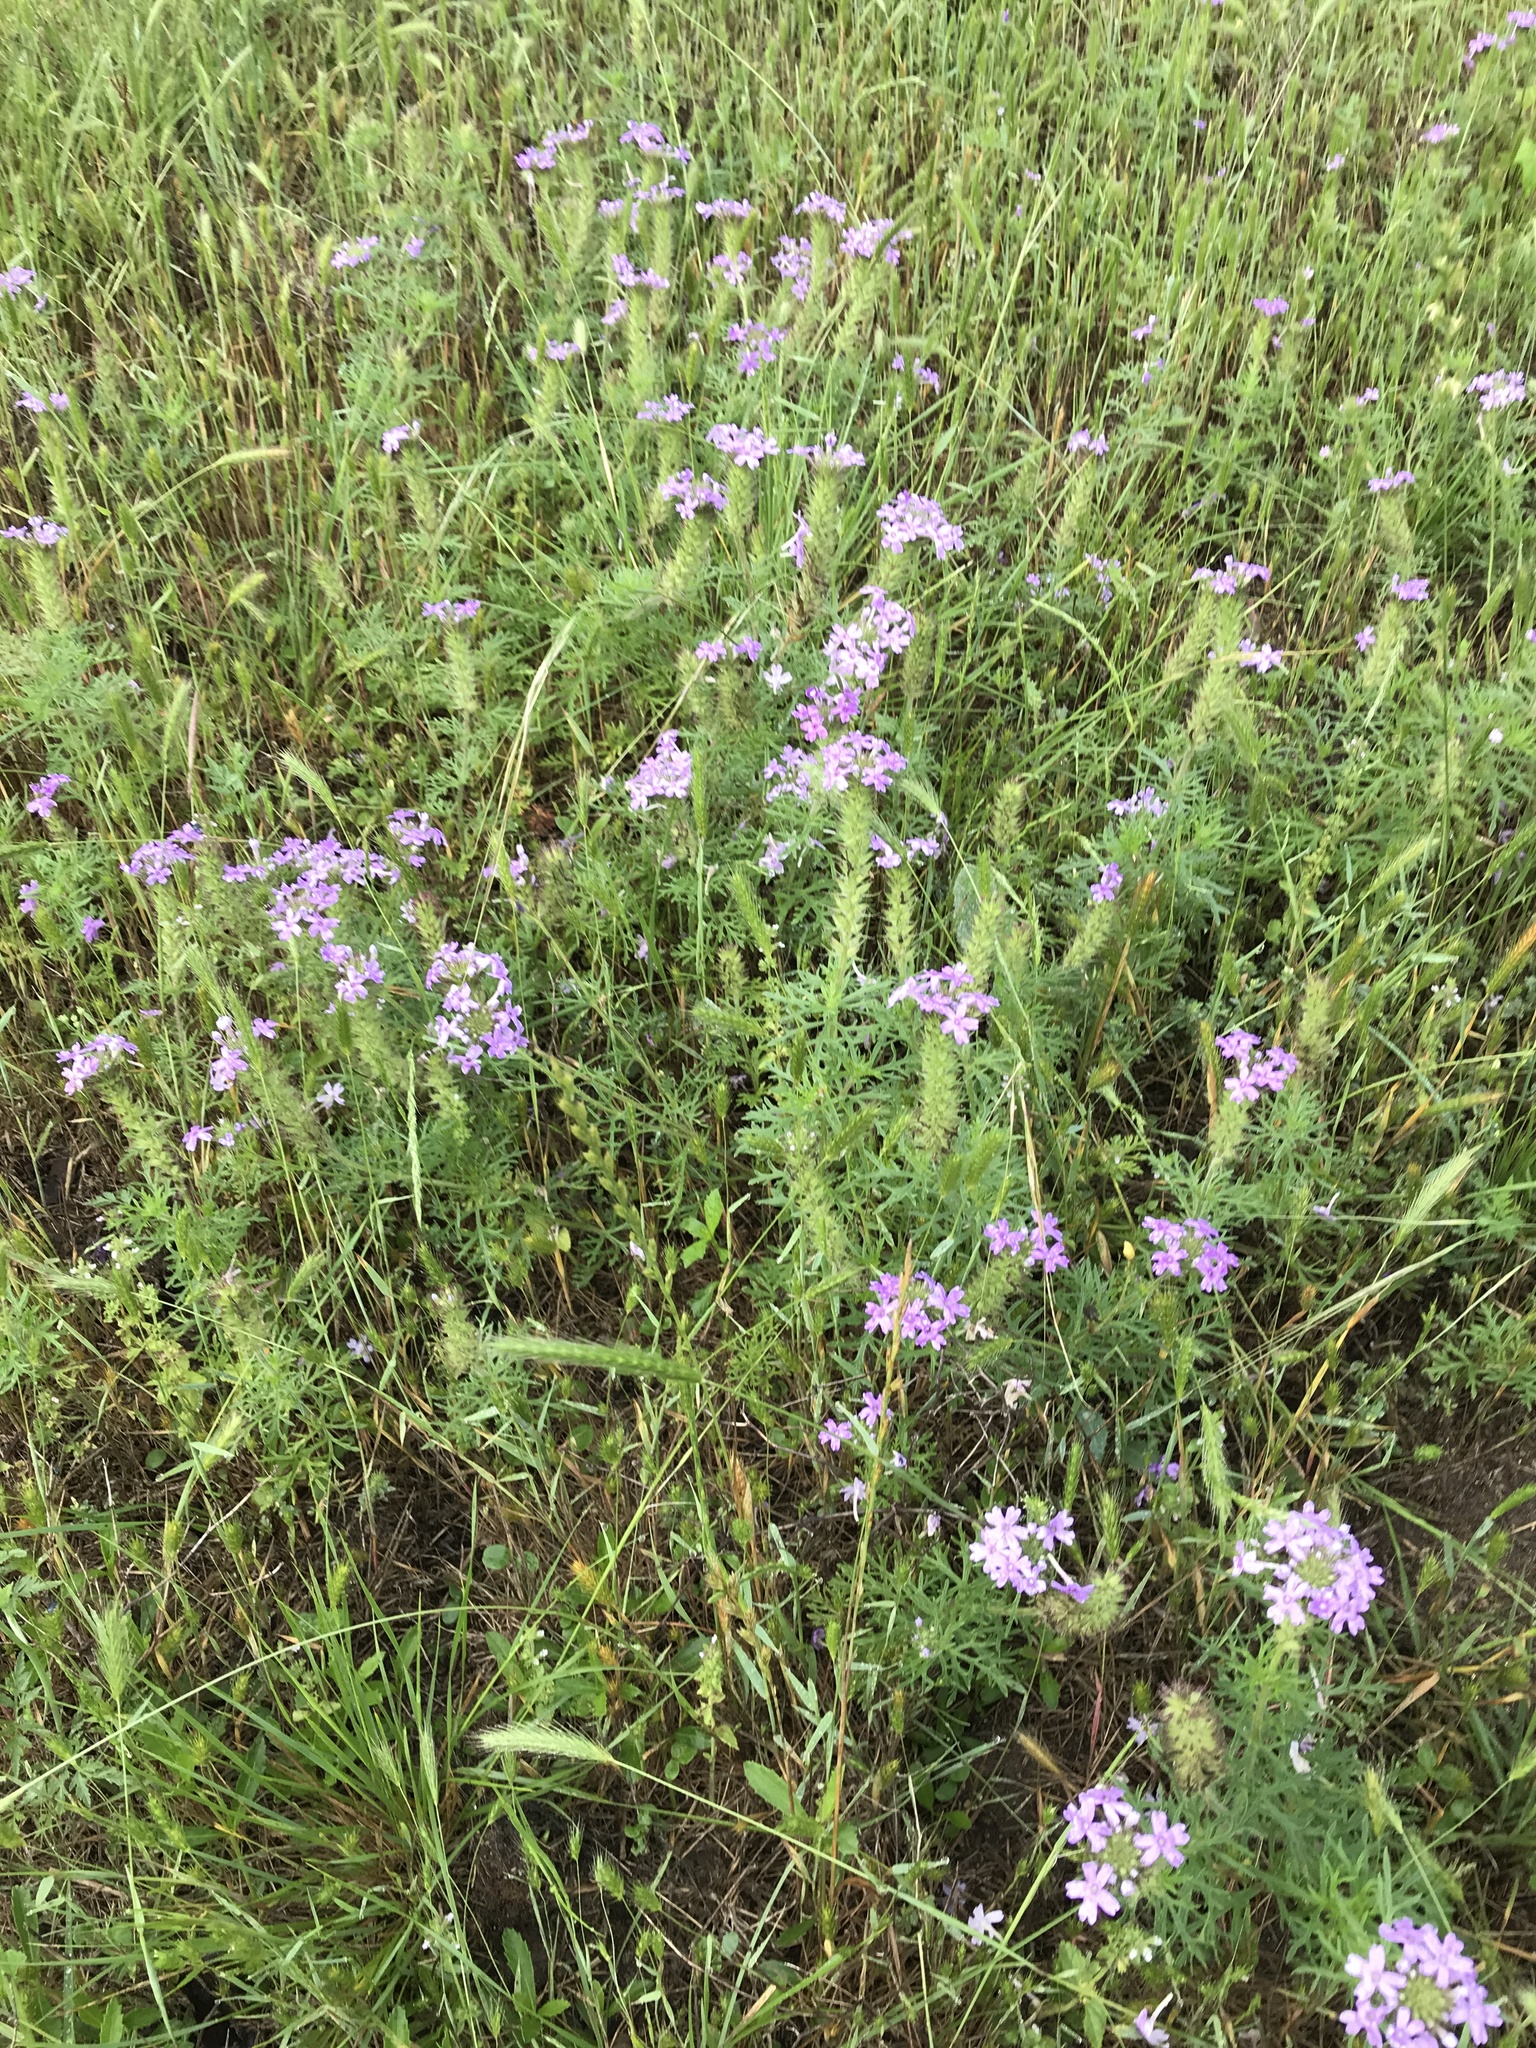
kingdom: Plantae
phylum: Tracheophyta
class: Magnoliopsida
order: Lamiales
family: Verbenaceae
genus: Verbena
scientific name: Verbena bipinnatifida
